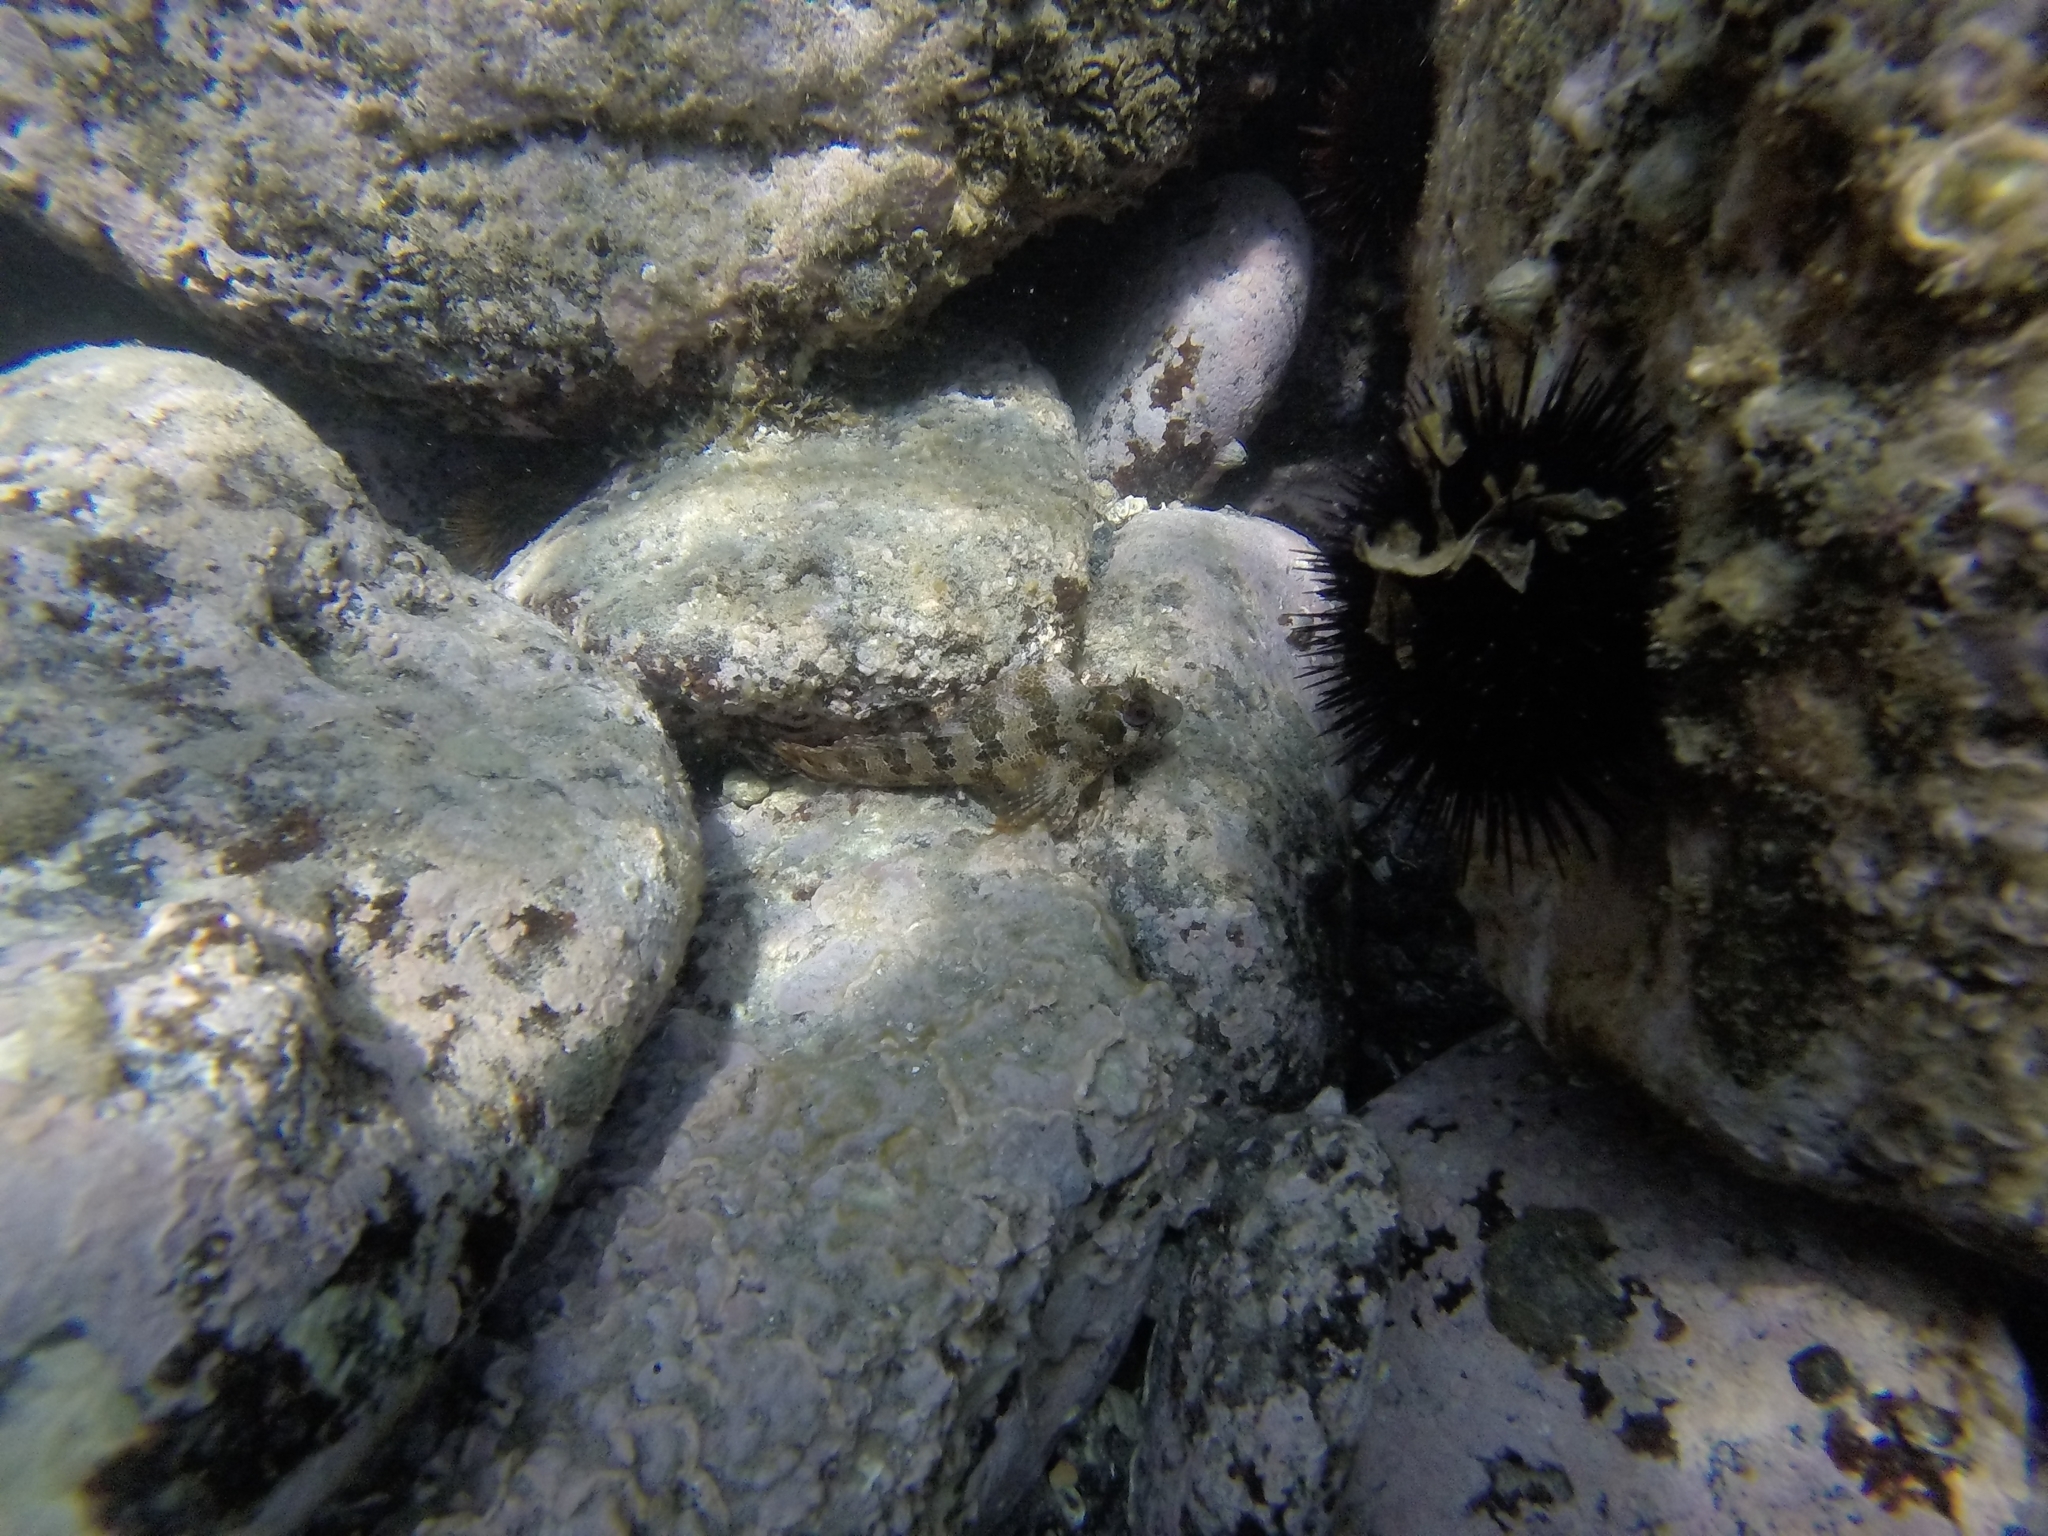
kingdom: Animalia
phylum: Chordata
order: Perciformes
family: Blenniidae
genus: Parablennius
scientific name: Parablennius gattorugine
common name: Tompot blenny
